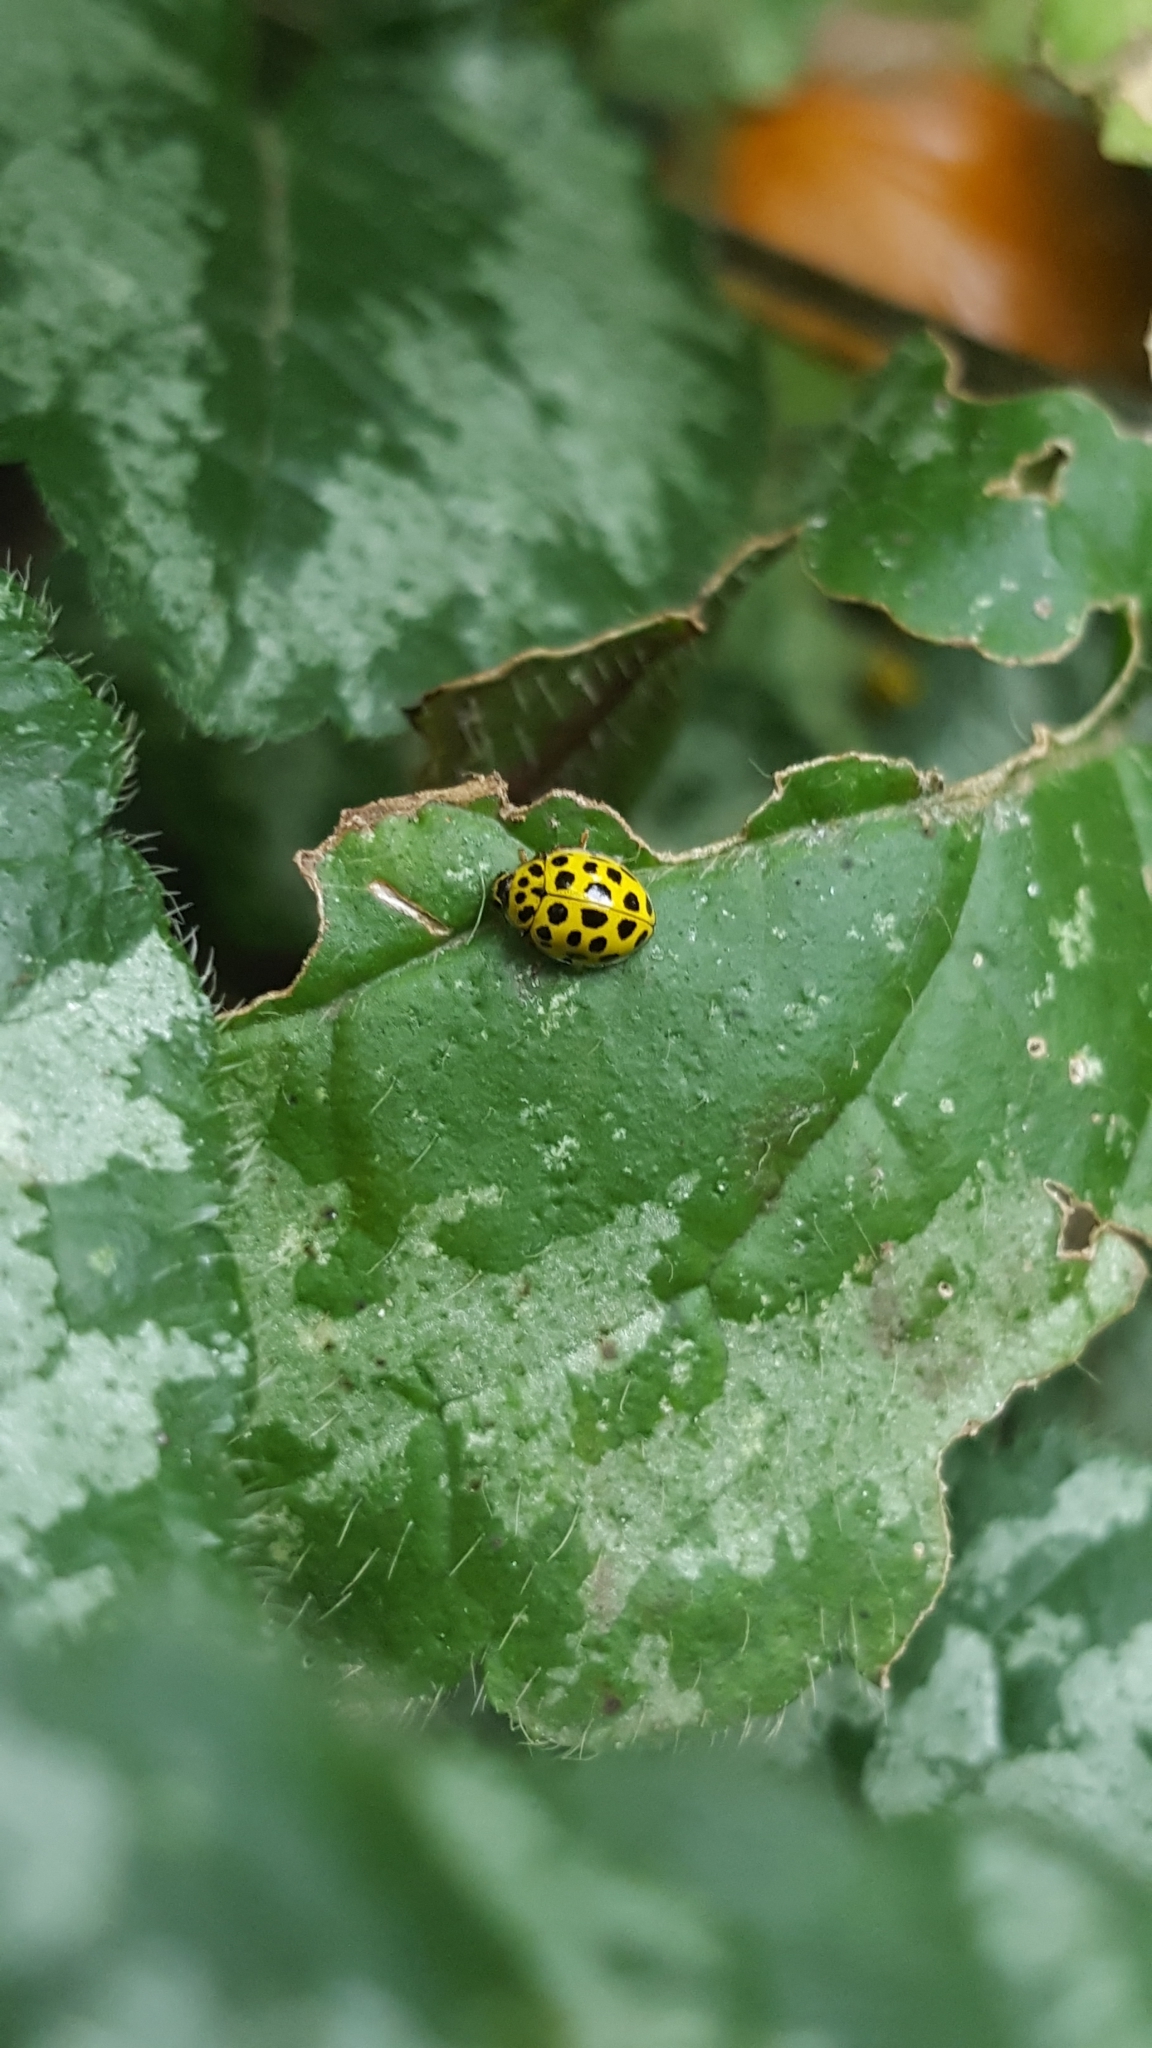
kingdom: Animalia
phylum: Arthropoda
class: Insecta
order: Coleoptera
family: Coccinellidae
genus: Psyllobora
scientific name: Psyllobora vigintiduopunctata
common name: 22-spot ladybird
